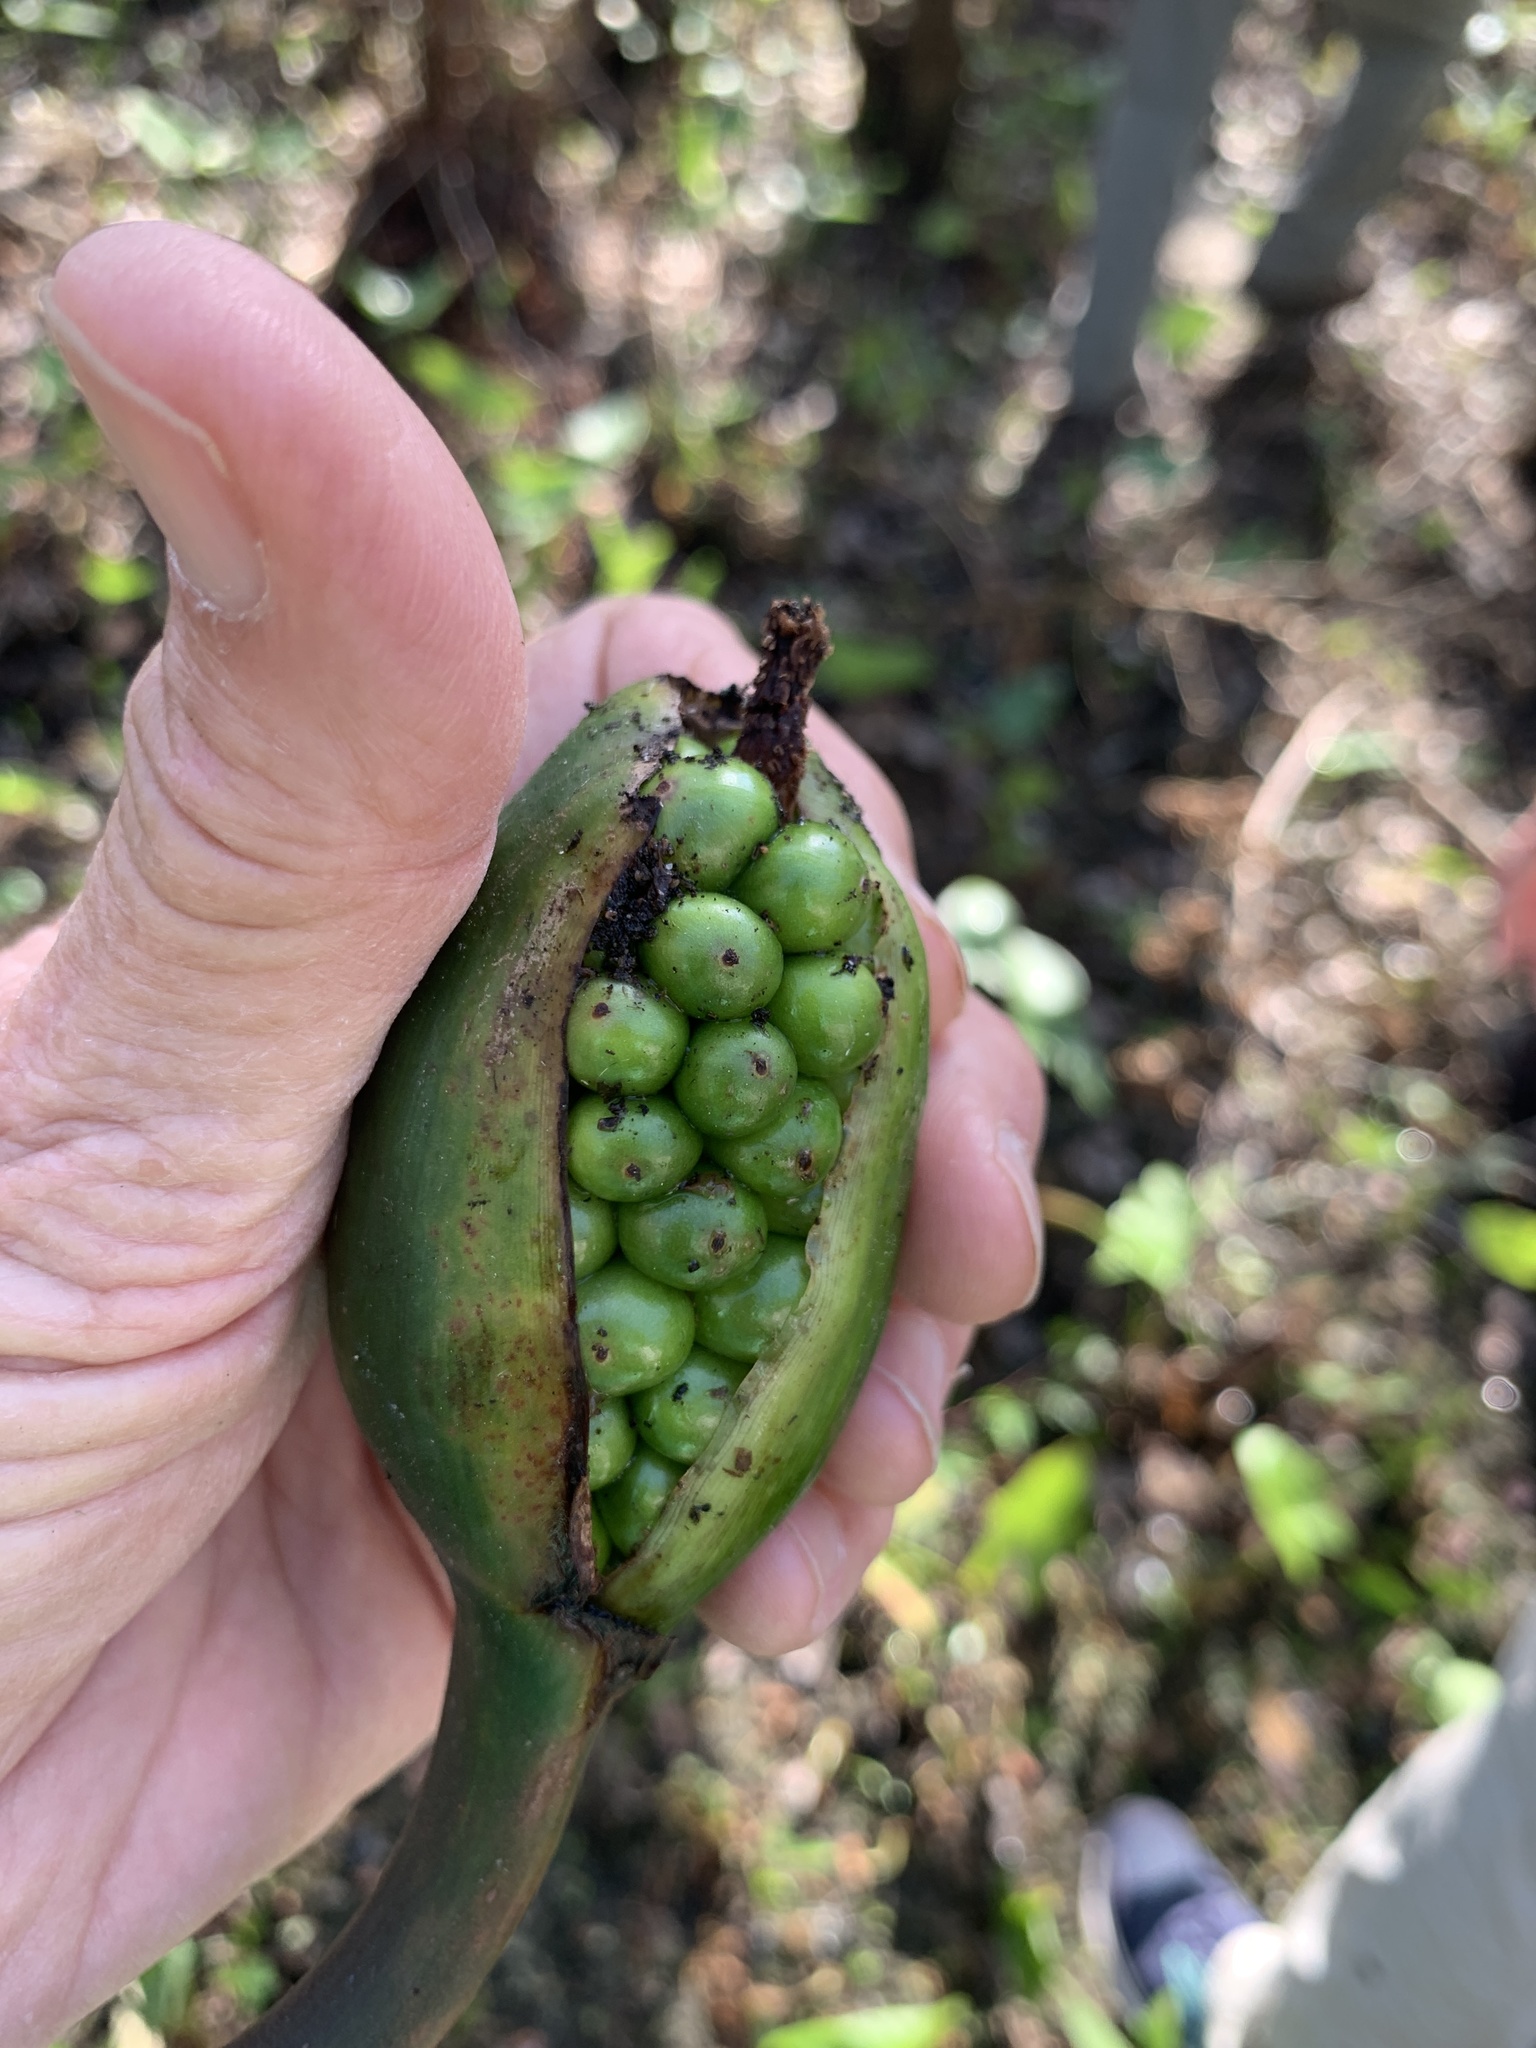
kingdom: Plantae
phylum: Tracheophyta
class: Liliopsida
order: Alismatales
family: Araceae
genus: Peltandra
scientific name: Peltandra virginica
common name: Arrow arum
